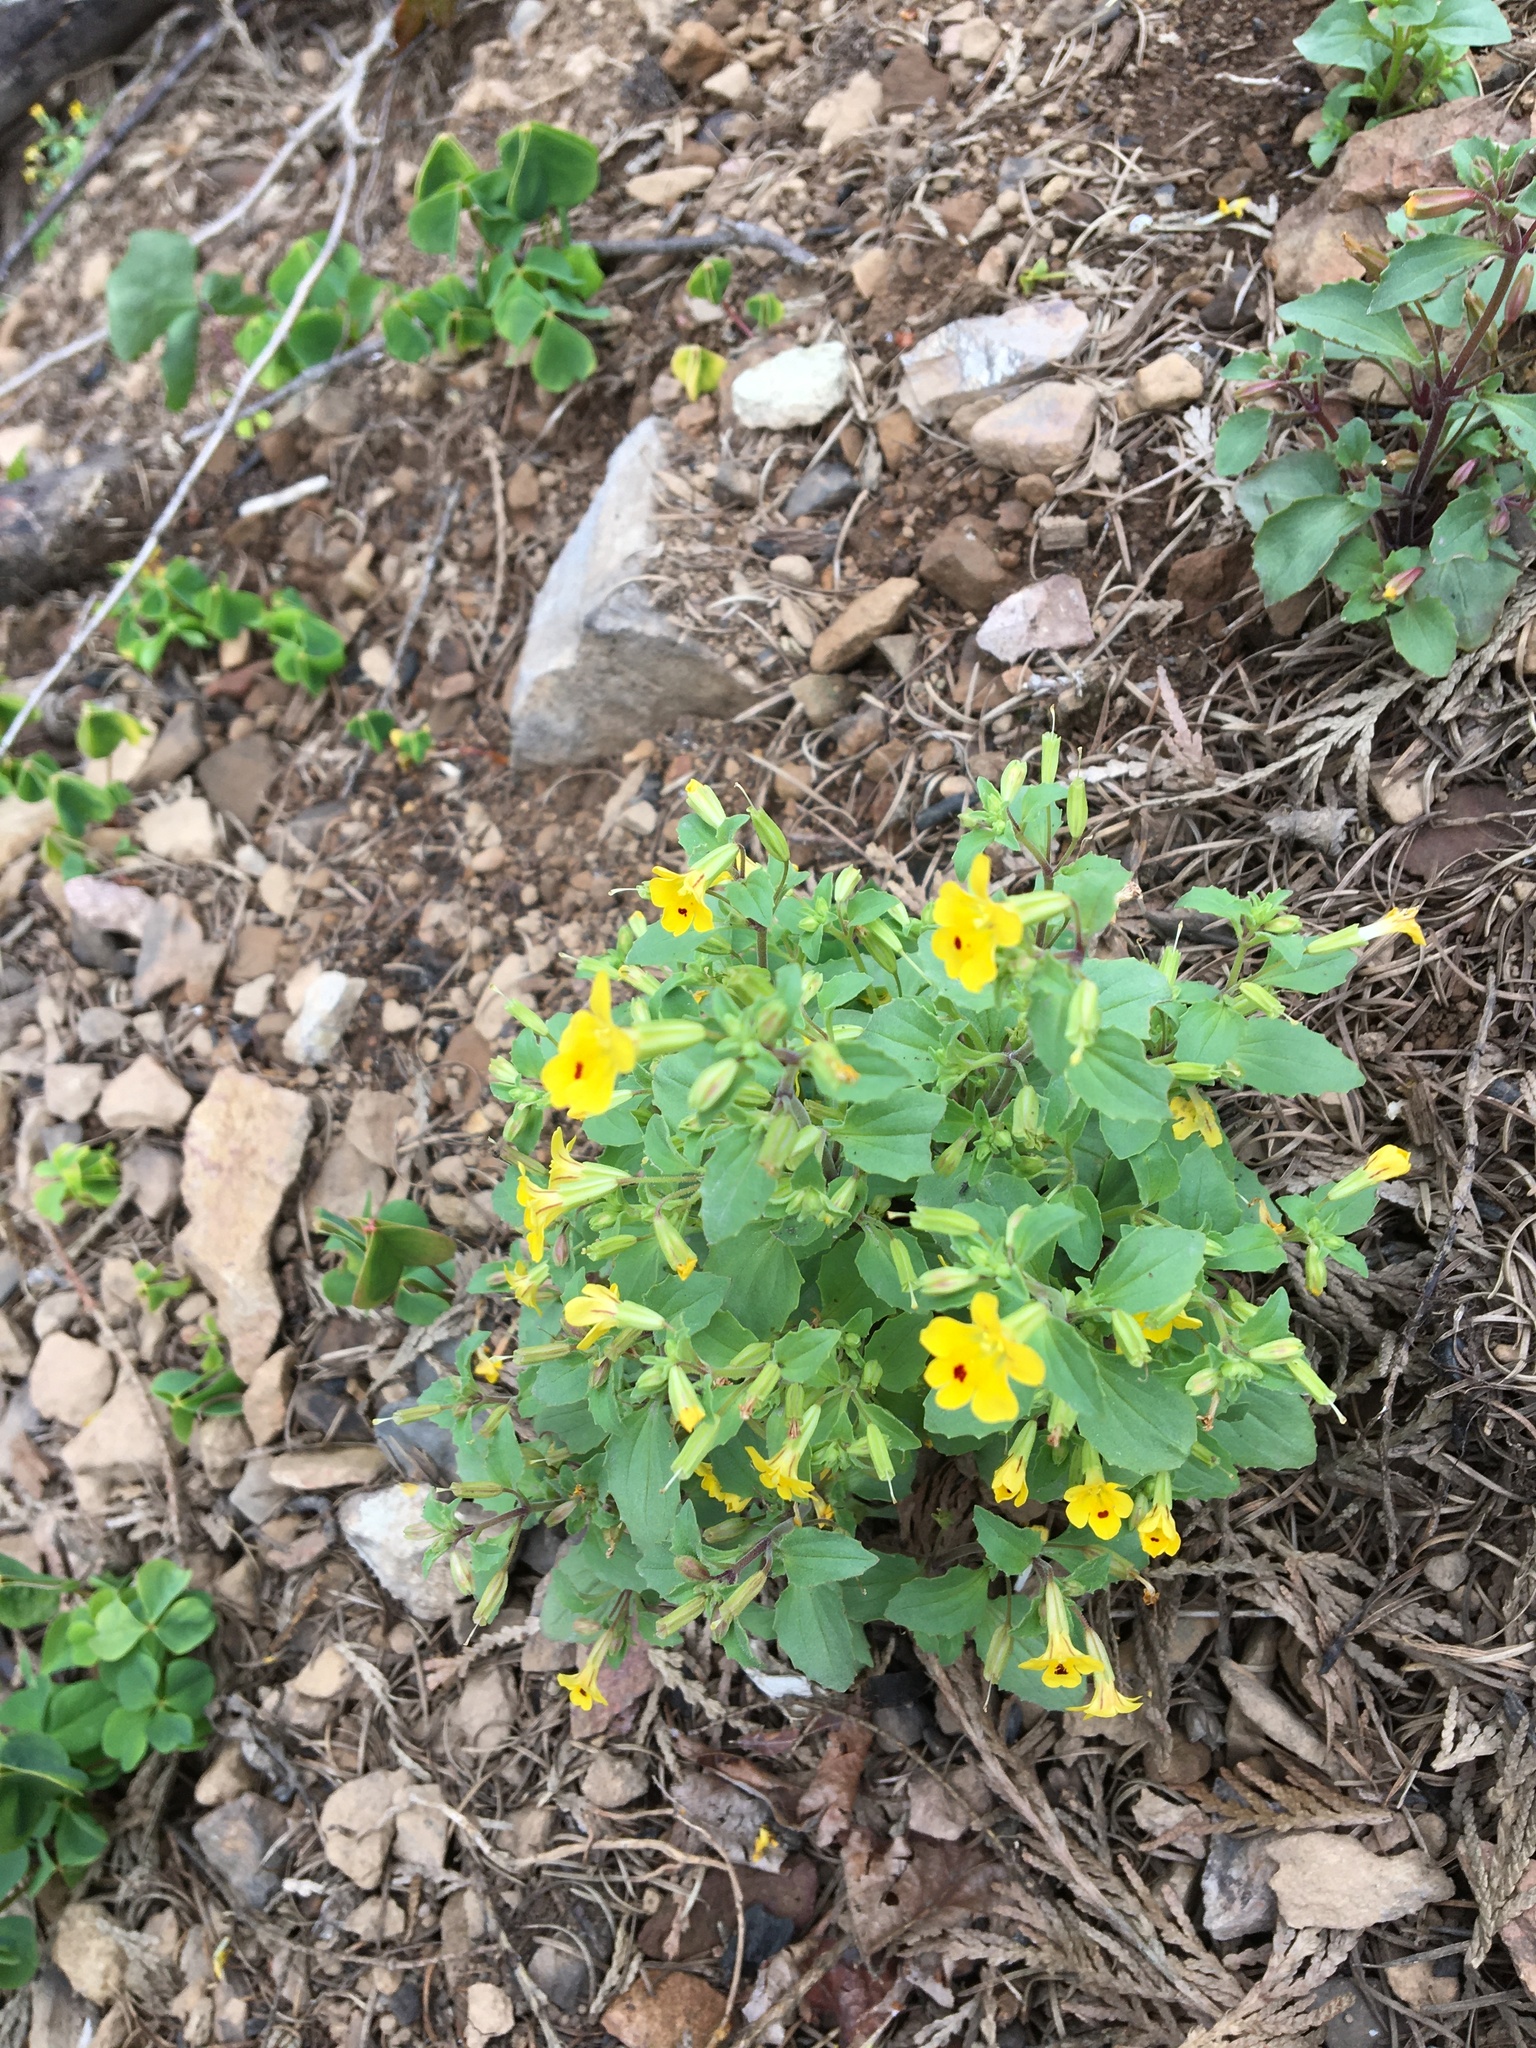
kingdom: Plantae
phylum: Tracheophyta
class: Magnoliopsida
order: Lamiales
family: Phrymaceae
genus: Erythranthe
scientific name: Erythranthe alsinoides
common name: Chickweed monkeyflower
